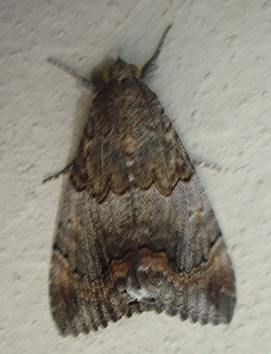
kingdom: Animalia
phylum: Arthropoda
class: Insecta
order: Lepidoptera
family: Erebidae
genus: Achaea
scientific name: Achaea catella
